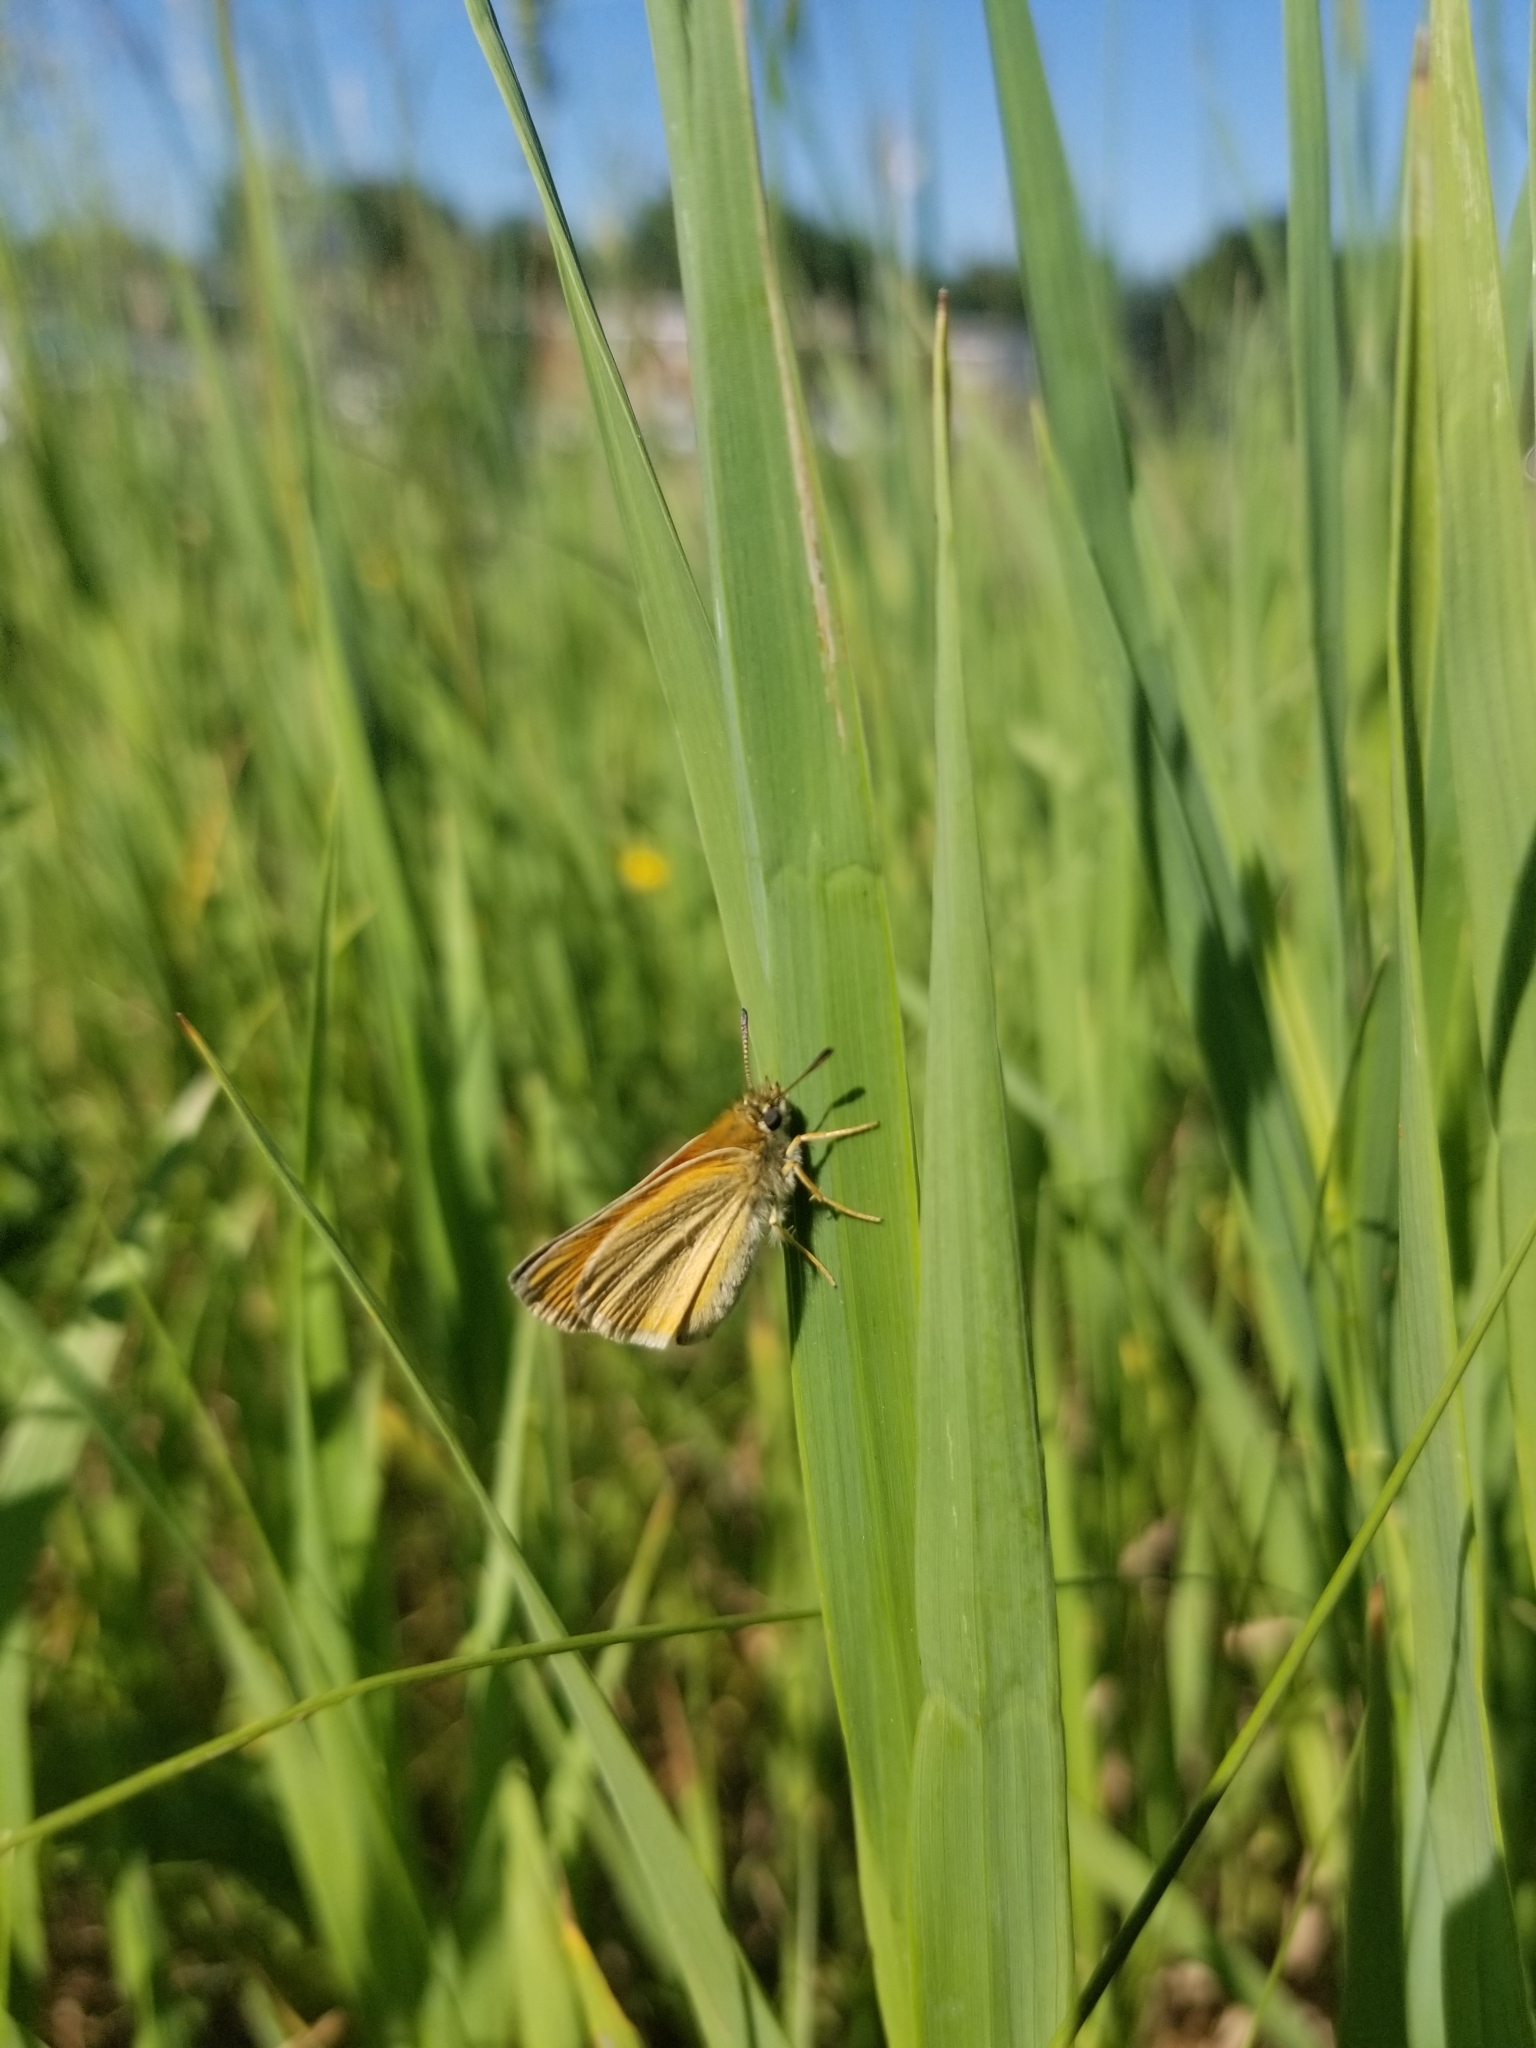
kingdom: Animalia
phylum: Arthropoda
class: Insecta
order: Lepidoptera
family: Hesperiidae
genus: Thymelicus
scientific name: Thymelicus lineola
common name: Essex skipper
